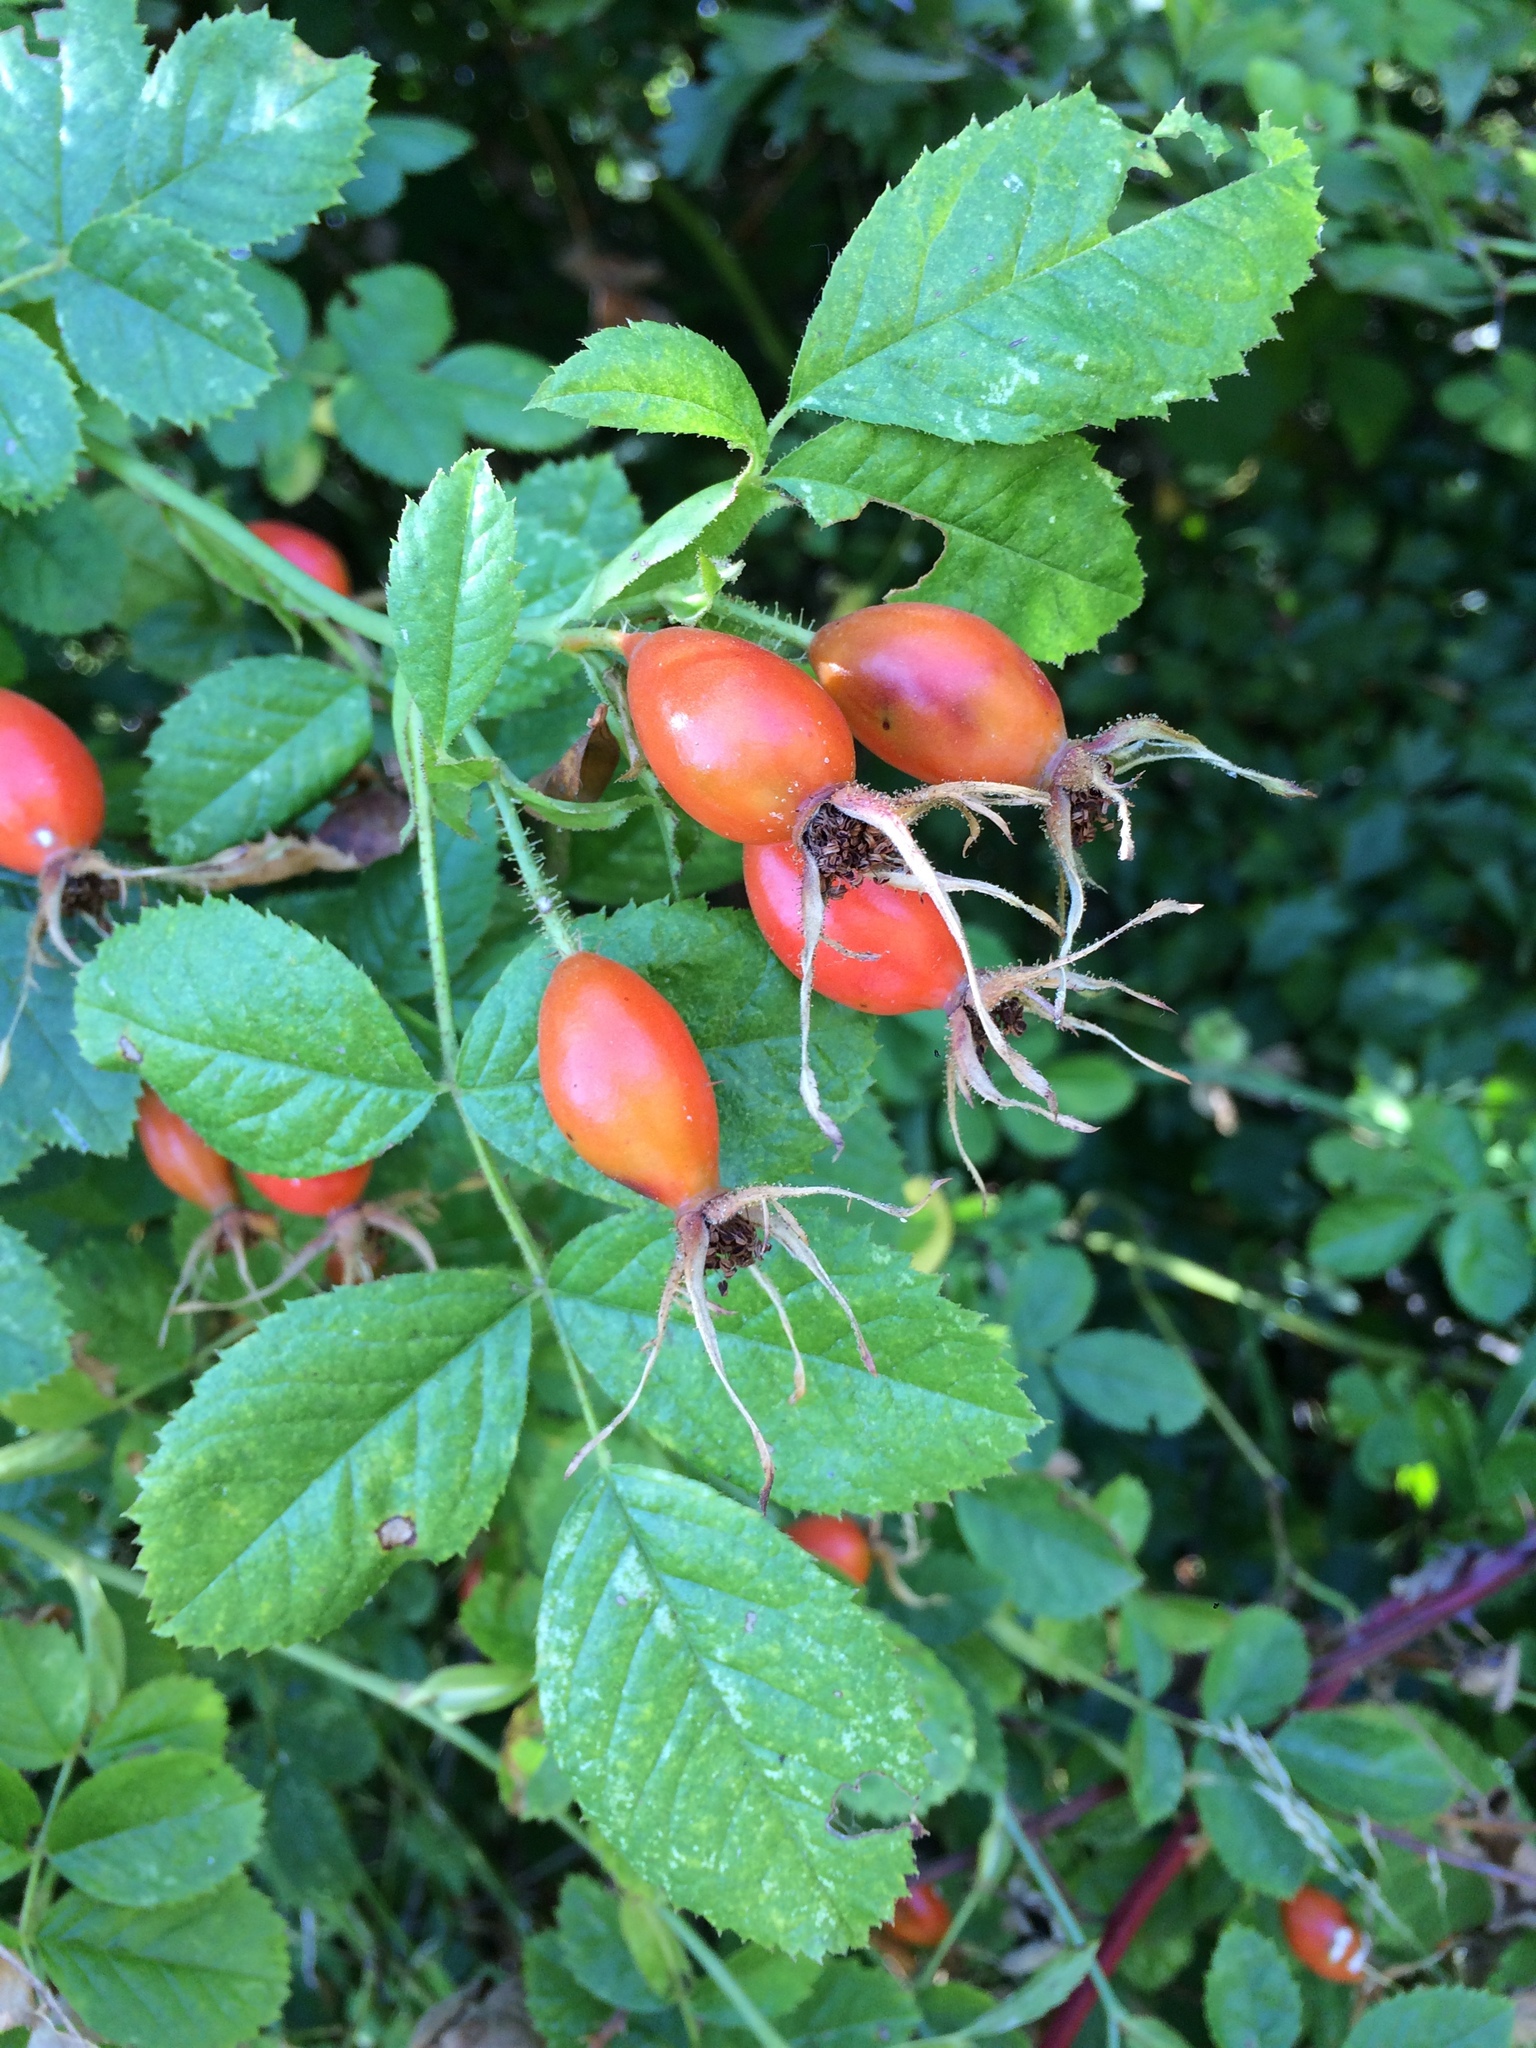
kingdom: Plantae
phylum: Tracheophyta
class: Magnoliopsida
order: Rosales
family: Rosaceae
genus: Rosa
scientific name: Rosa pisocarpa
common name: Cluster rose
